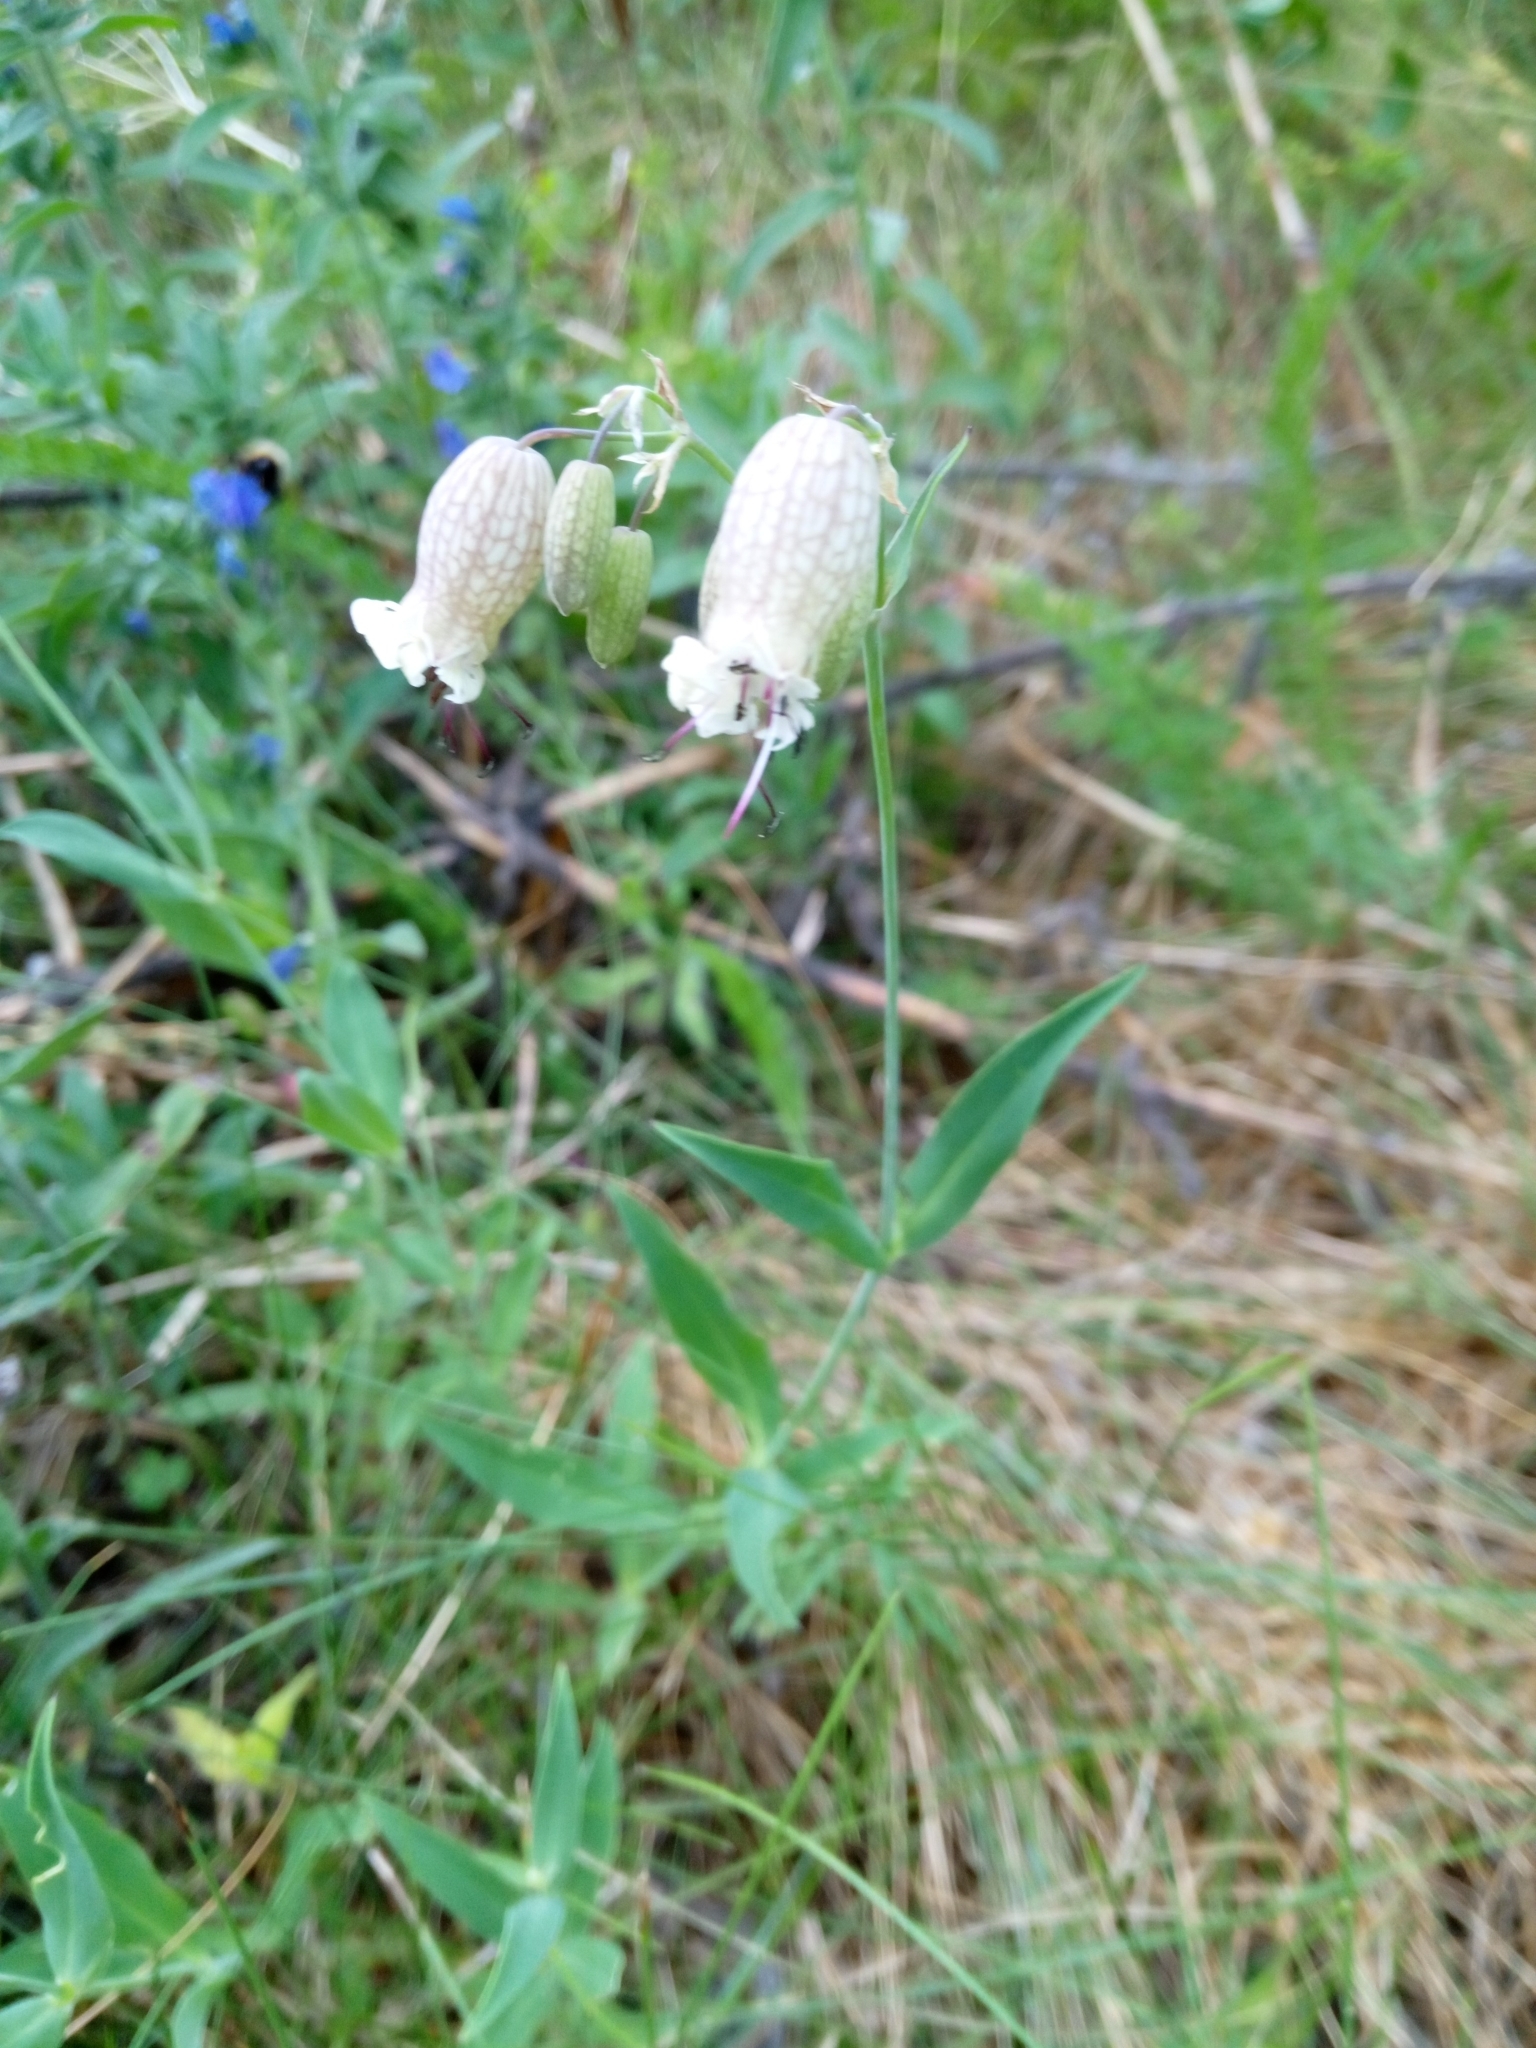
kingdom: Plantae
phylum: Tracheophyta
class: Magnoliopsida
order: Caryophyllales
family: Caryophyllaceae
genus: Silene
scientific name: Silene vulgaris
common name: Bladder campion
